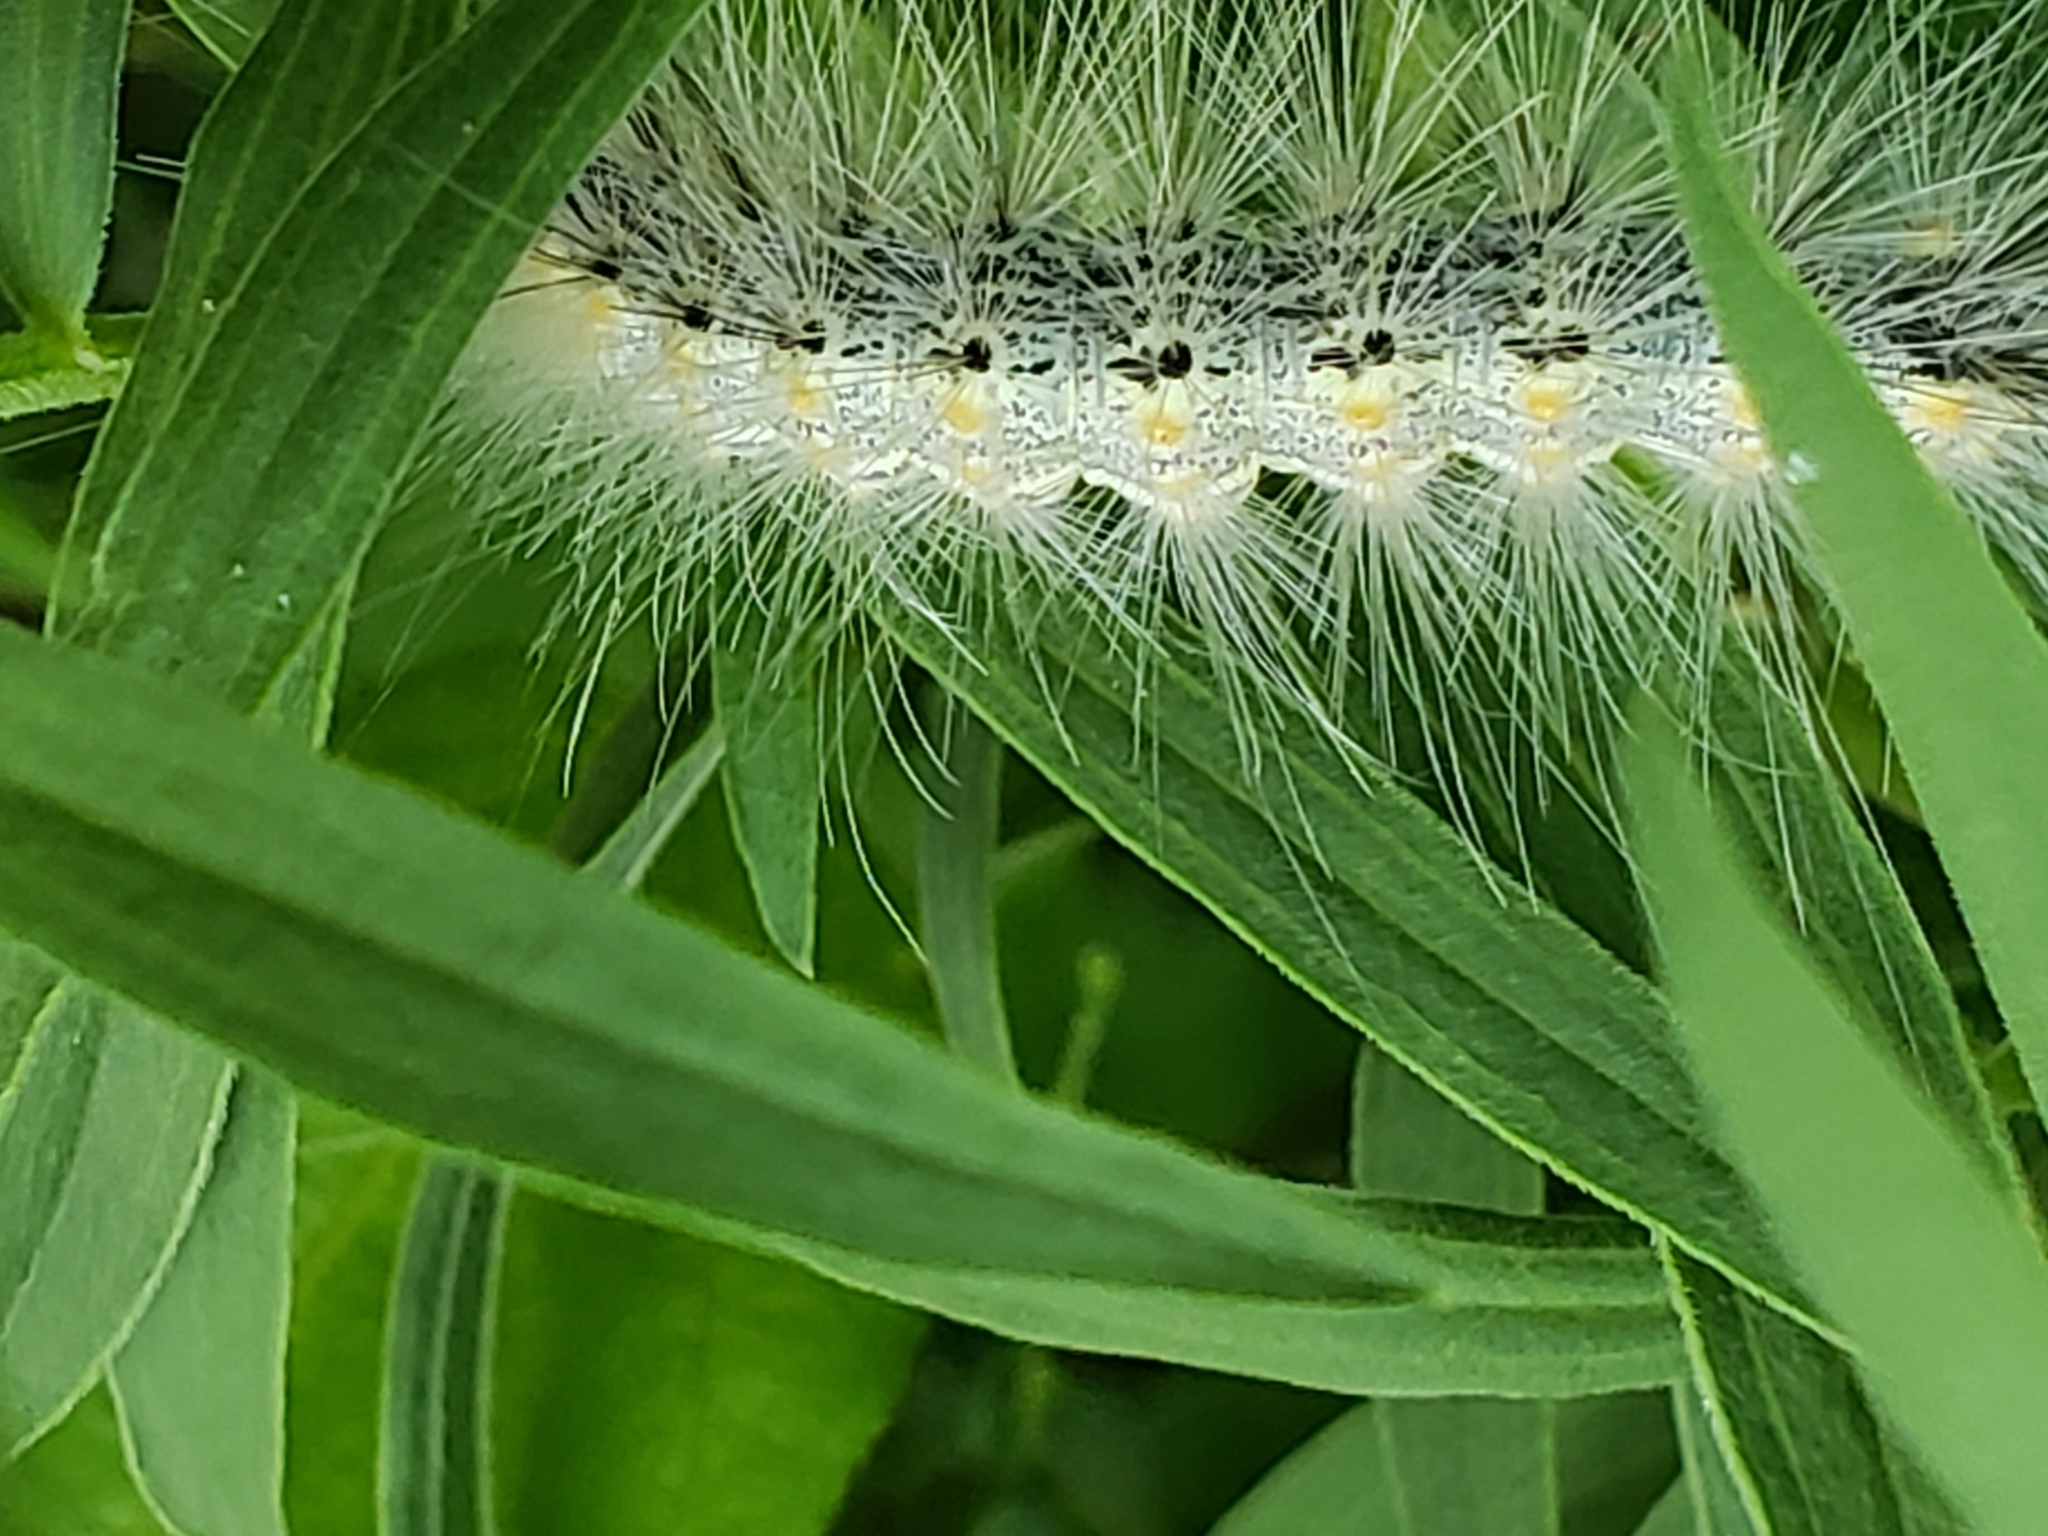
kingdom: Animalia
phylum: Arthropoda
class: Insecta
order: Lepidoptera
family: Erebidae
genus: Hyphantria
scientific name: Hyphantria cunea
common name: American white moth
